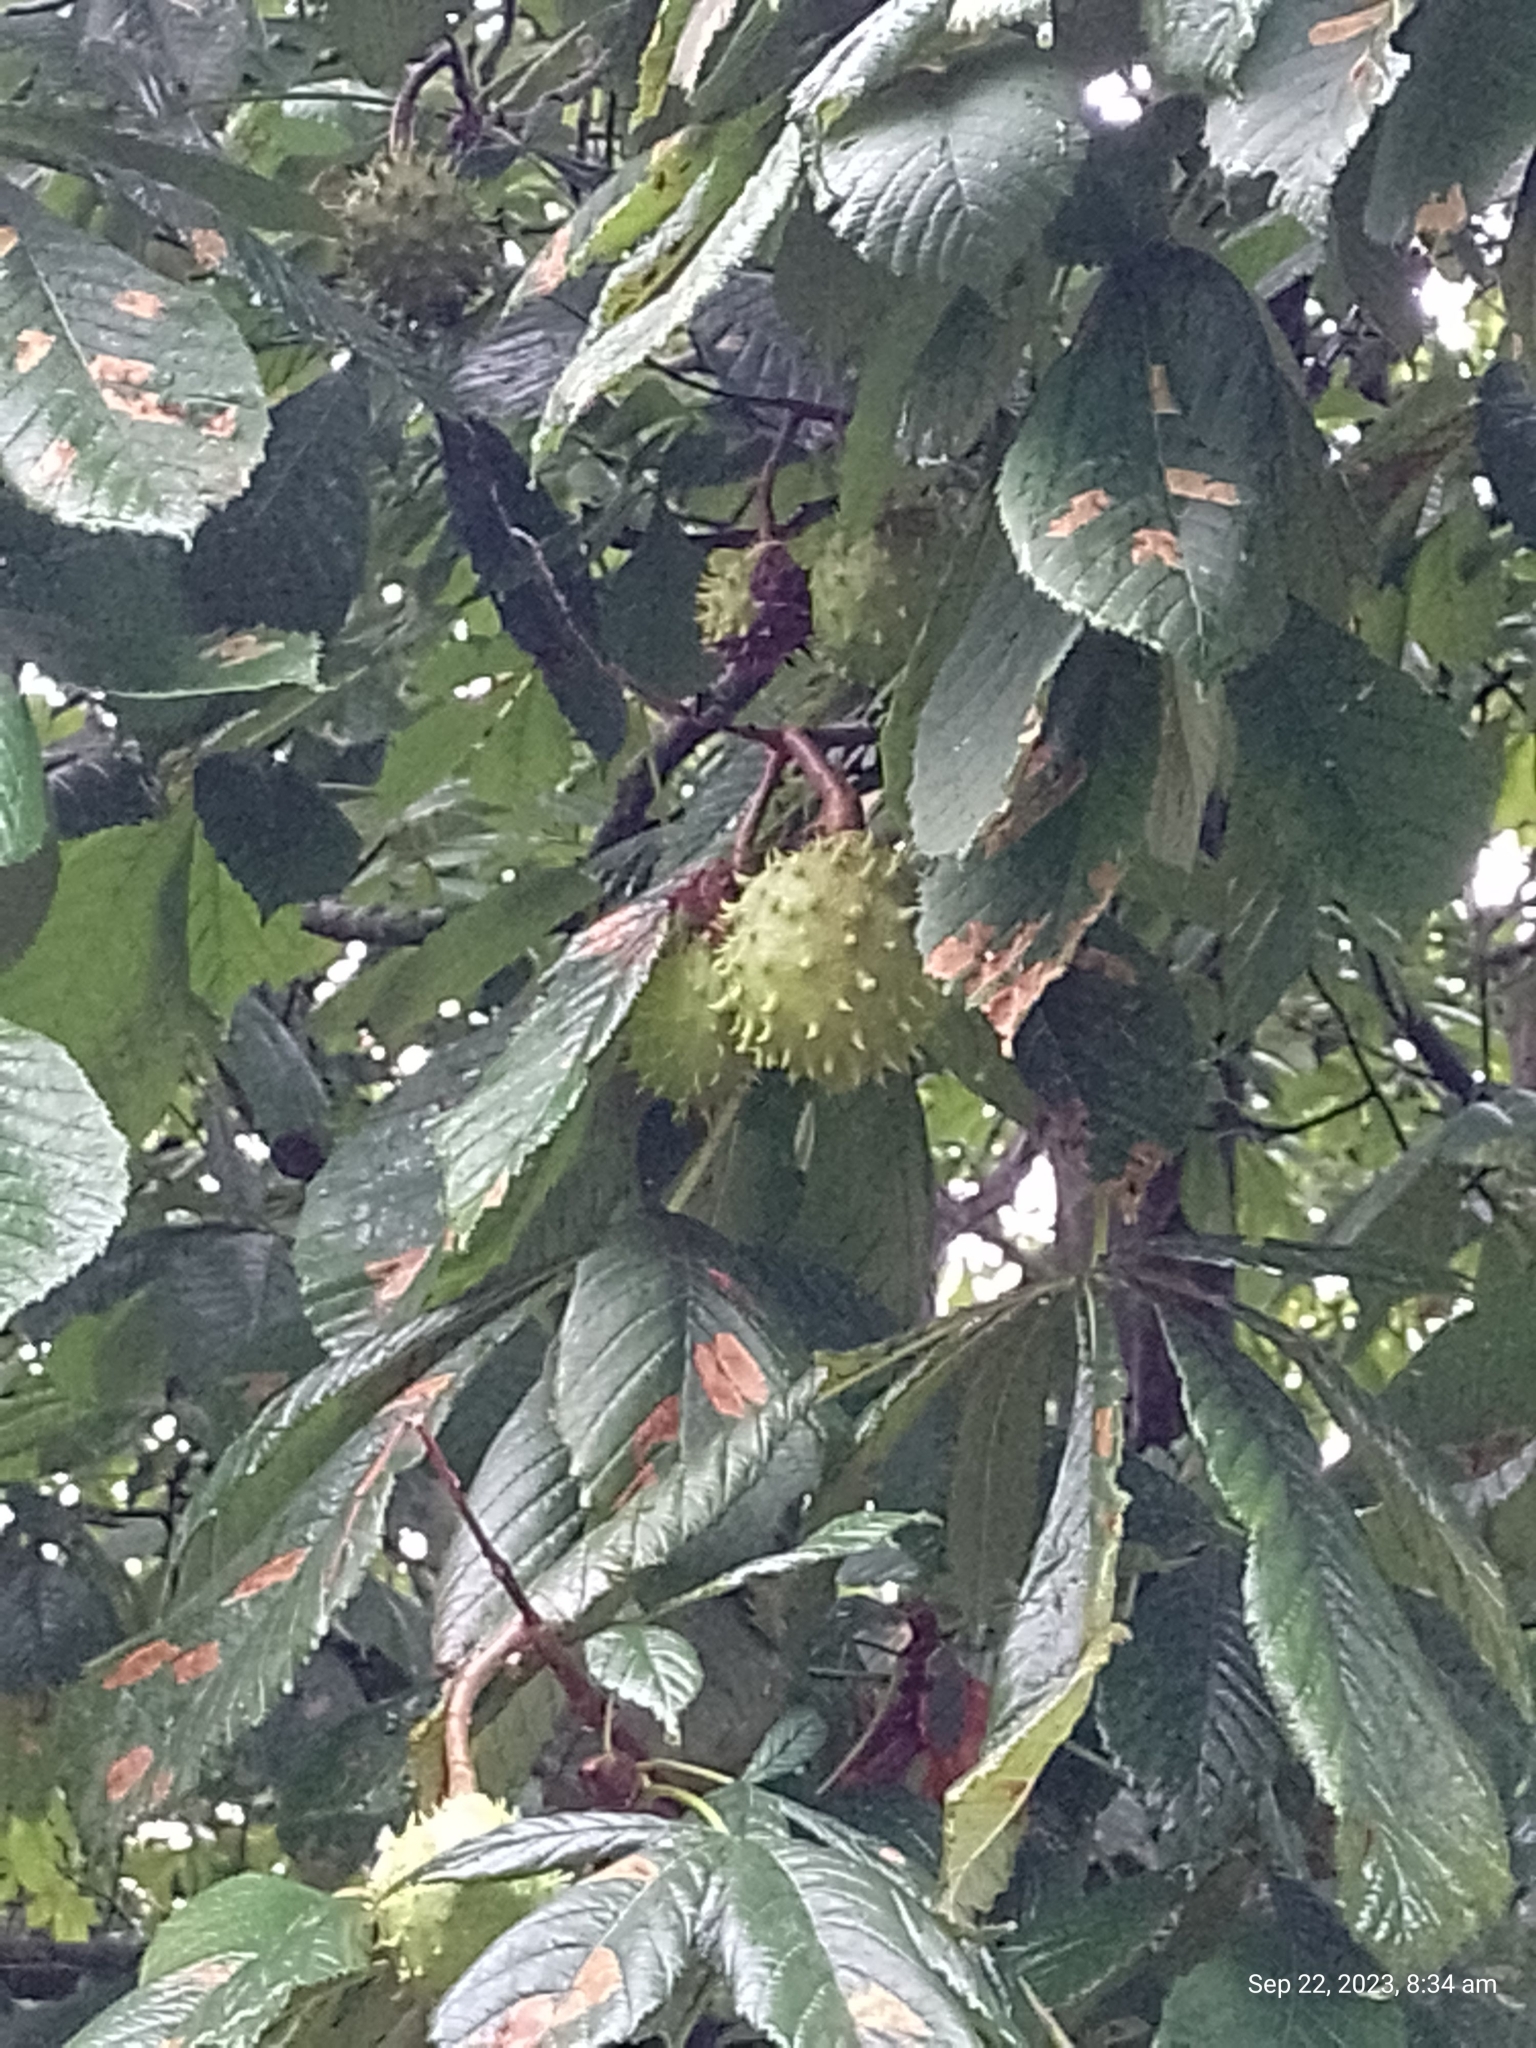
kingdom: Plantae
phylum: Tracheophyta
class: Magnoliopsida
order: Sapindales
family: Sapindaceae
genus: Aesculus
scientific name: Aesculus hippocastanum
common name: Horse-chestnut
